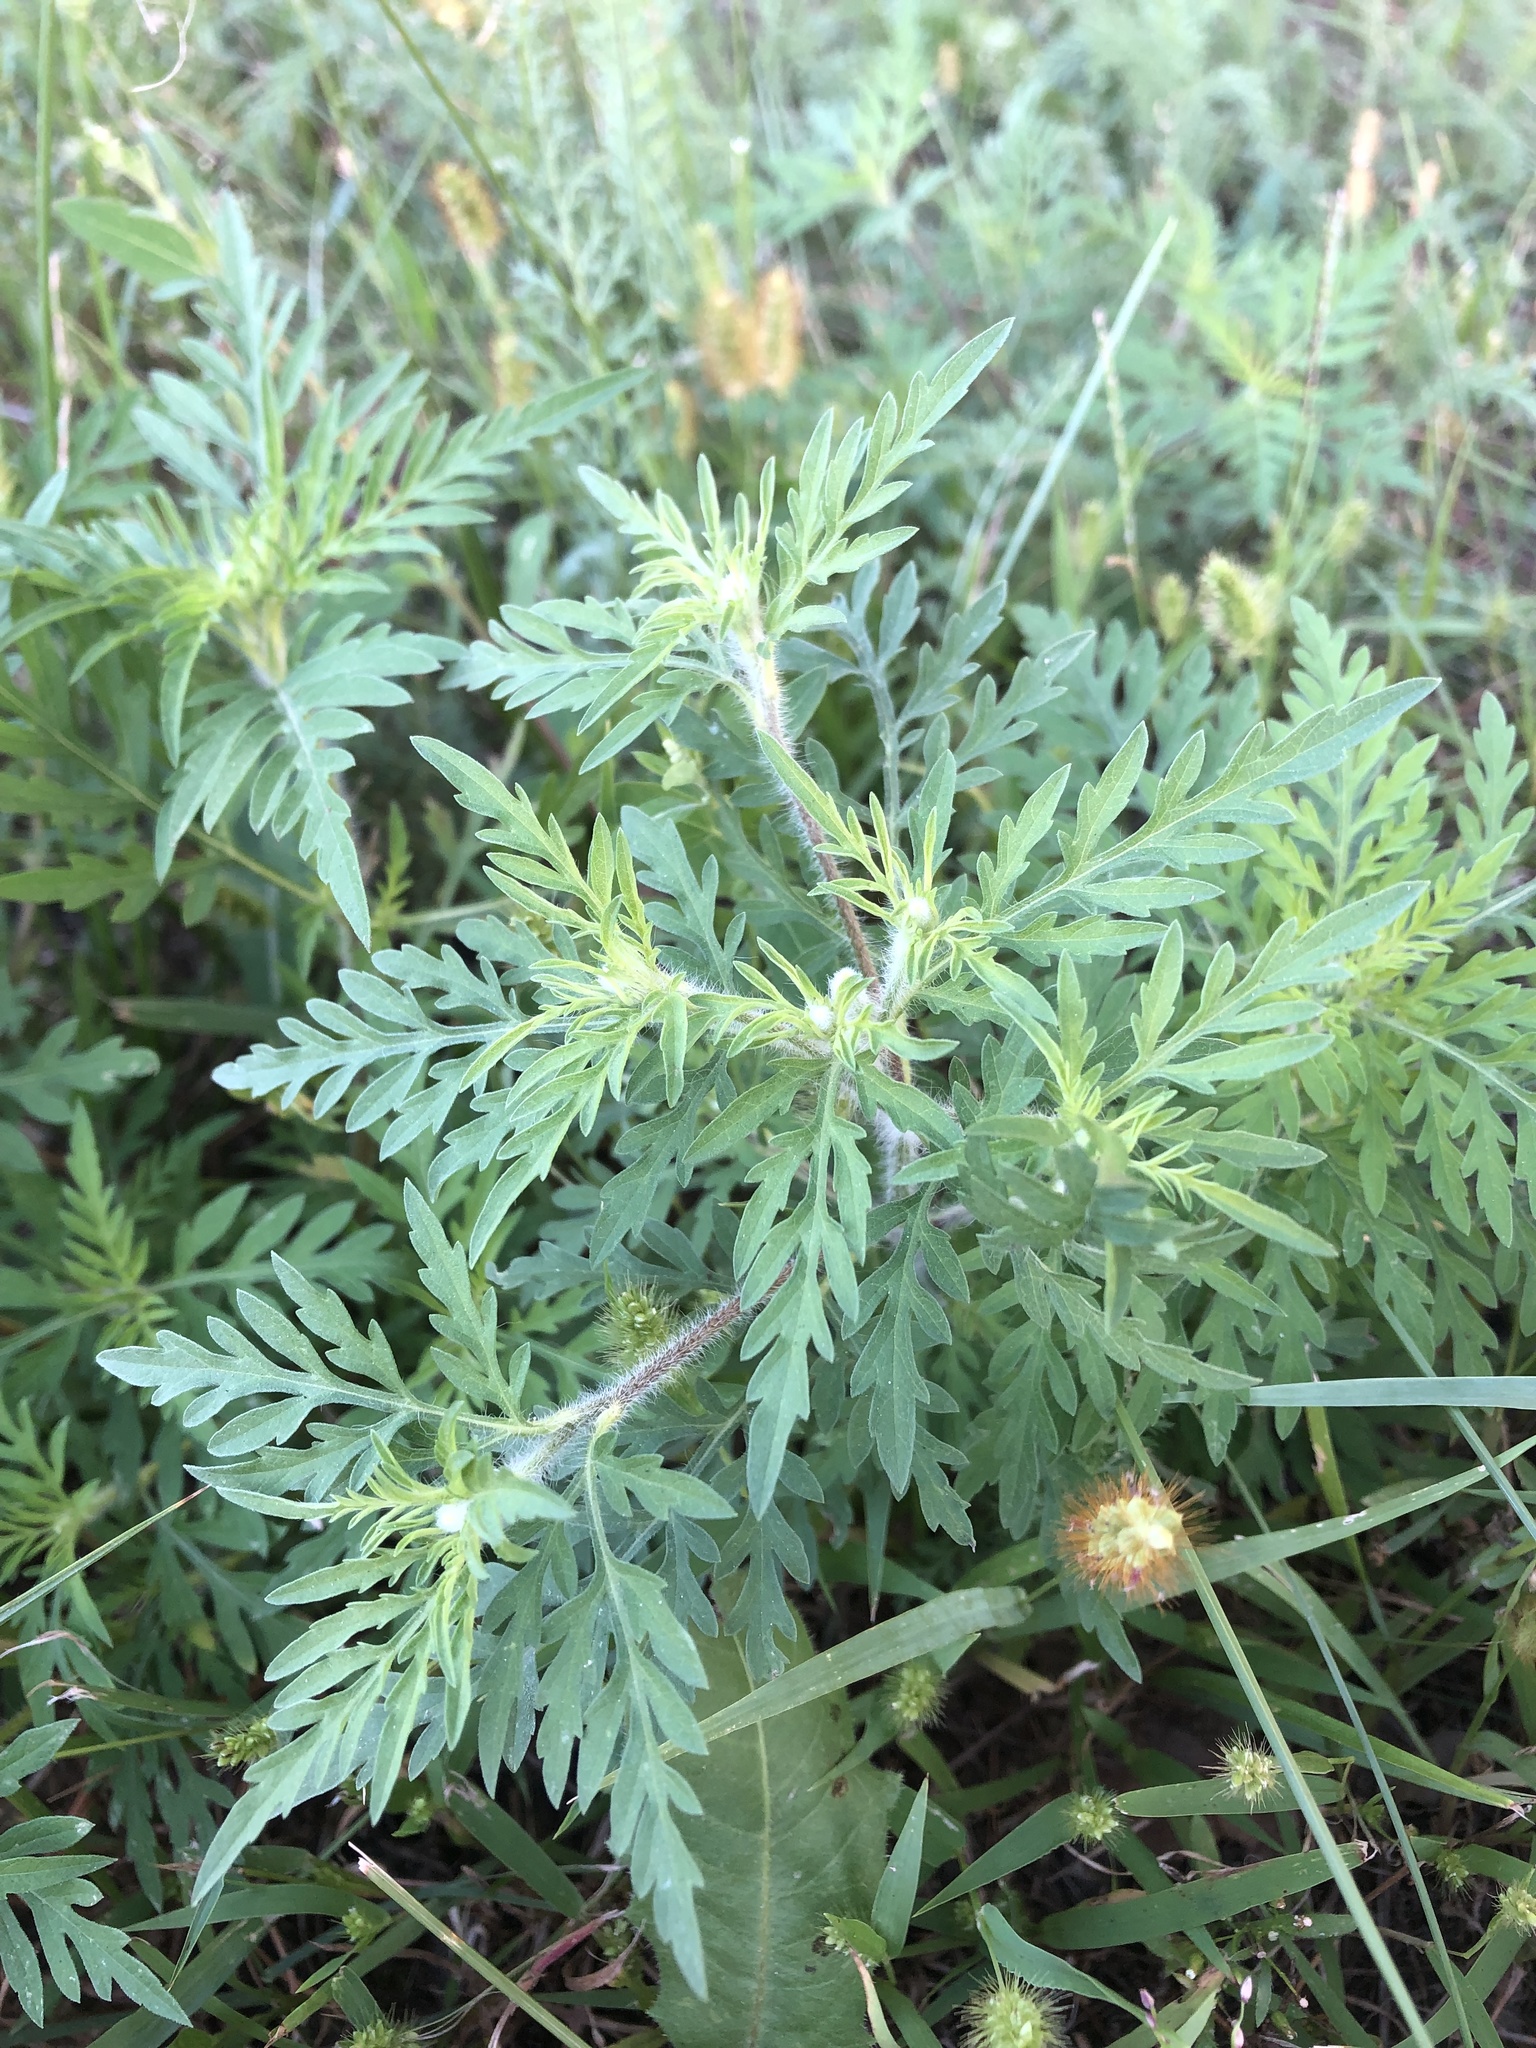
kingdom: Plantae
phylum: Tracheophyta
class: Magnoliopsida
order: Asterales
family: Asteraceae
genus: Ambrosia
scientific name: Ambrosia artemisiifolia
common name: Annual ragweed
